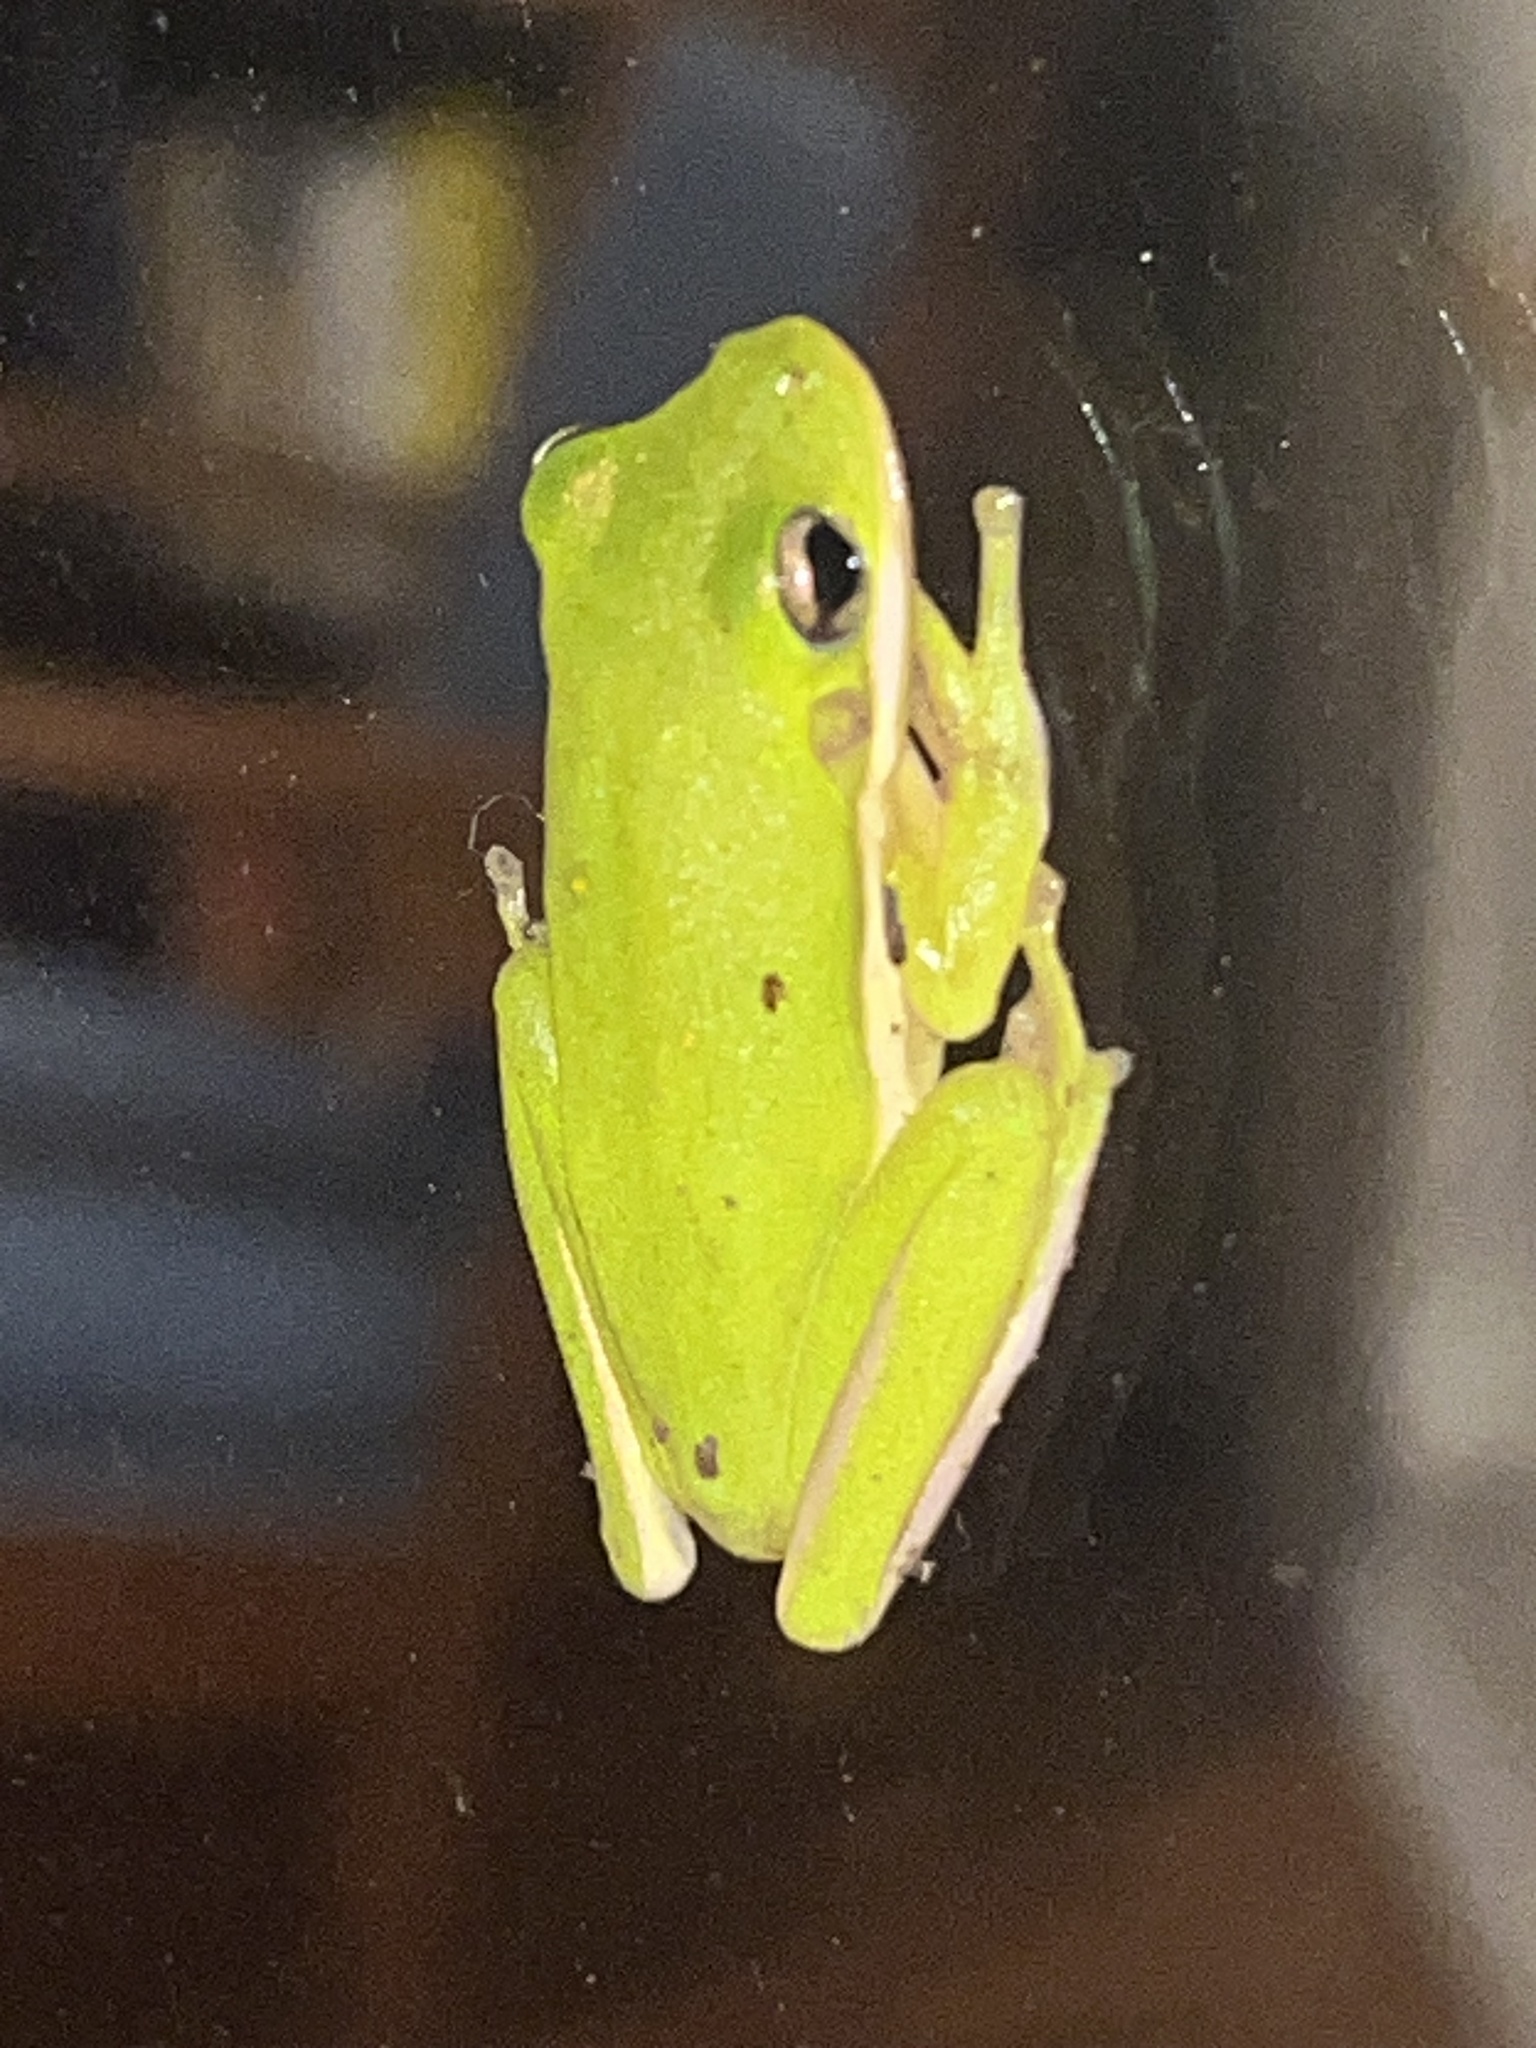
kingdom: Animalia
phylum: Chordata
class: Amphibia
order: Anura
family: Hylidae
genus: Dryophytes
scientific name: Dryophytes cinereus
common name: Green treefrog
